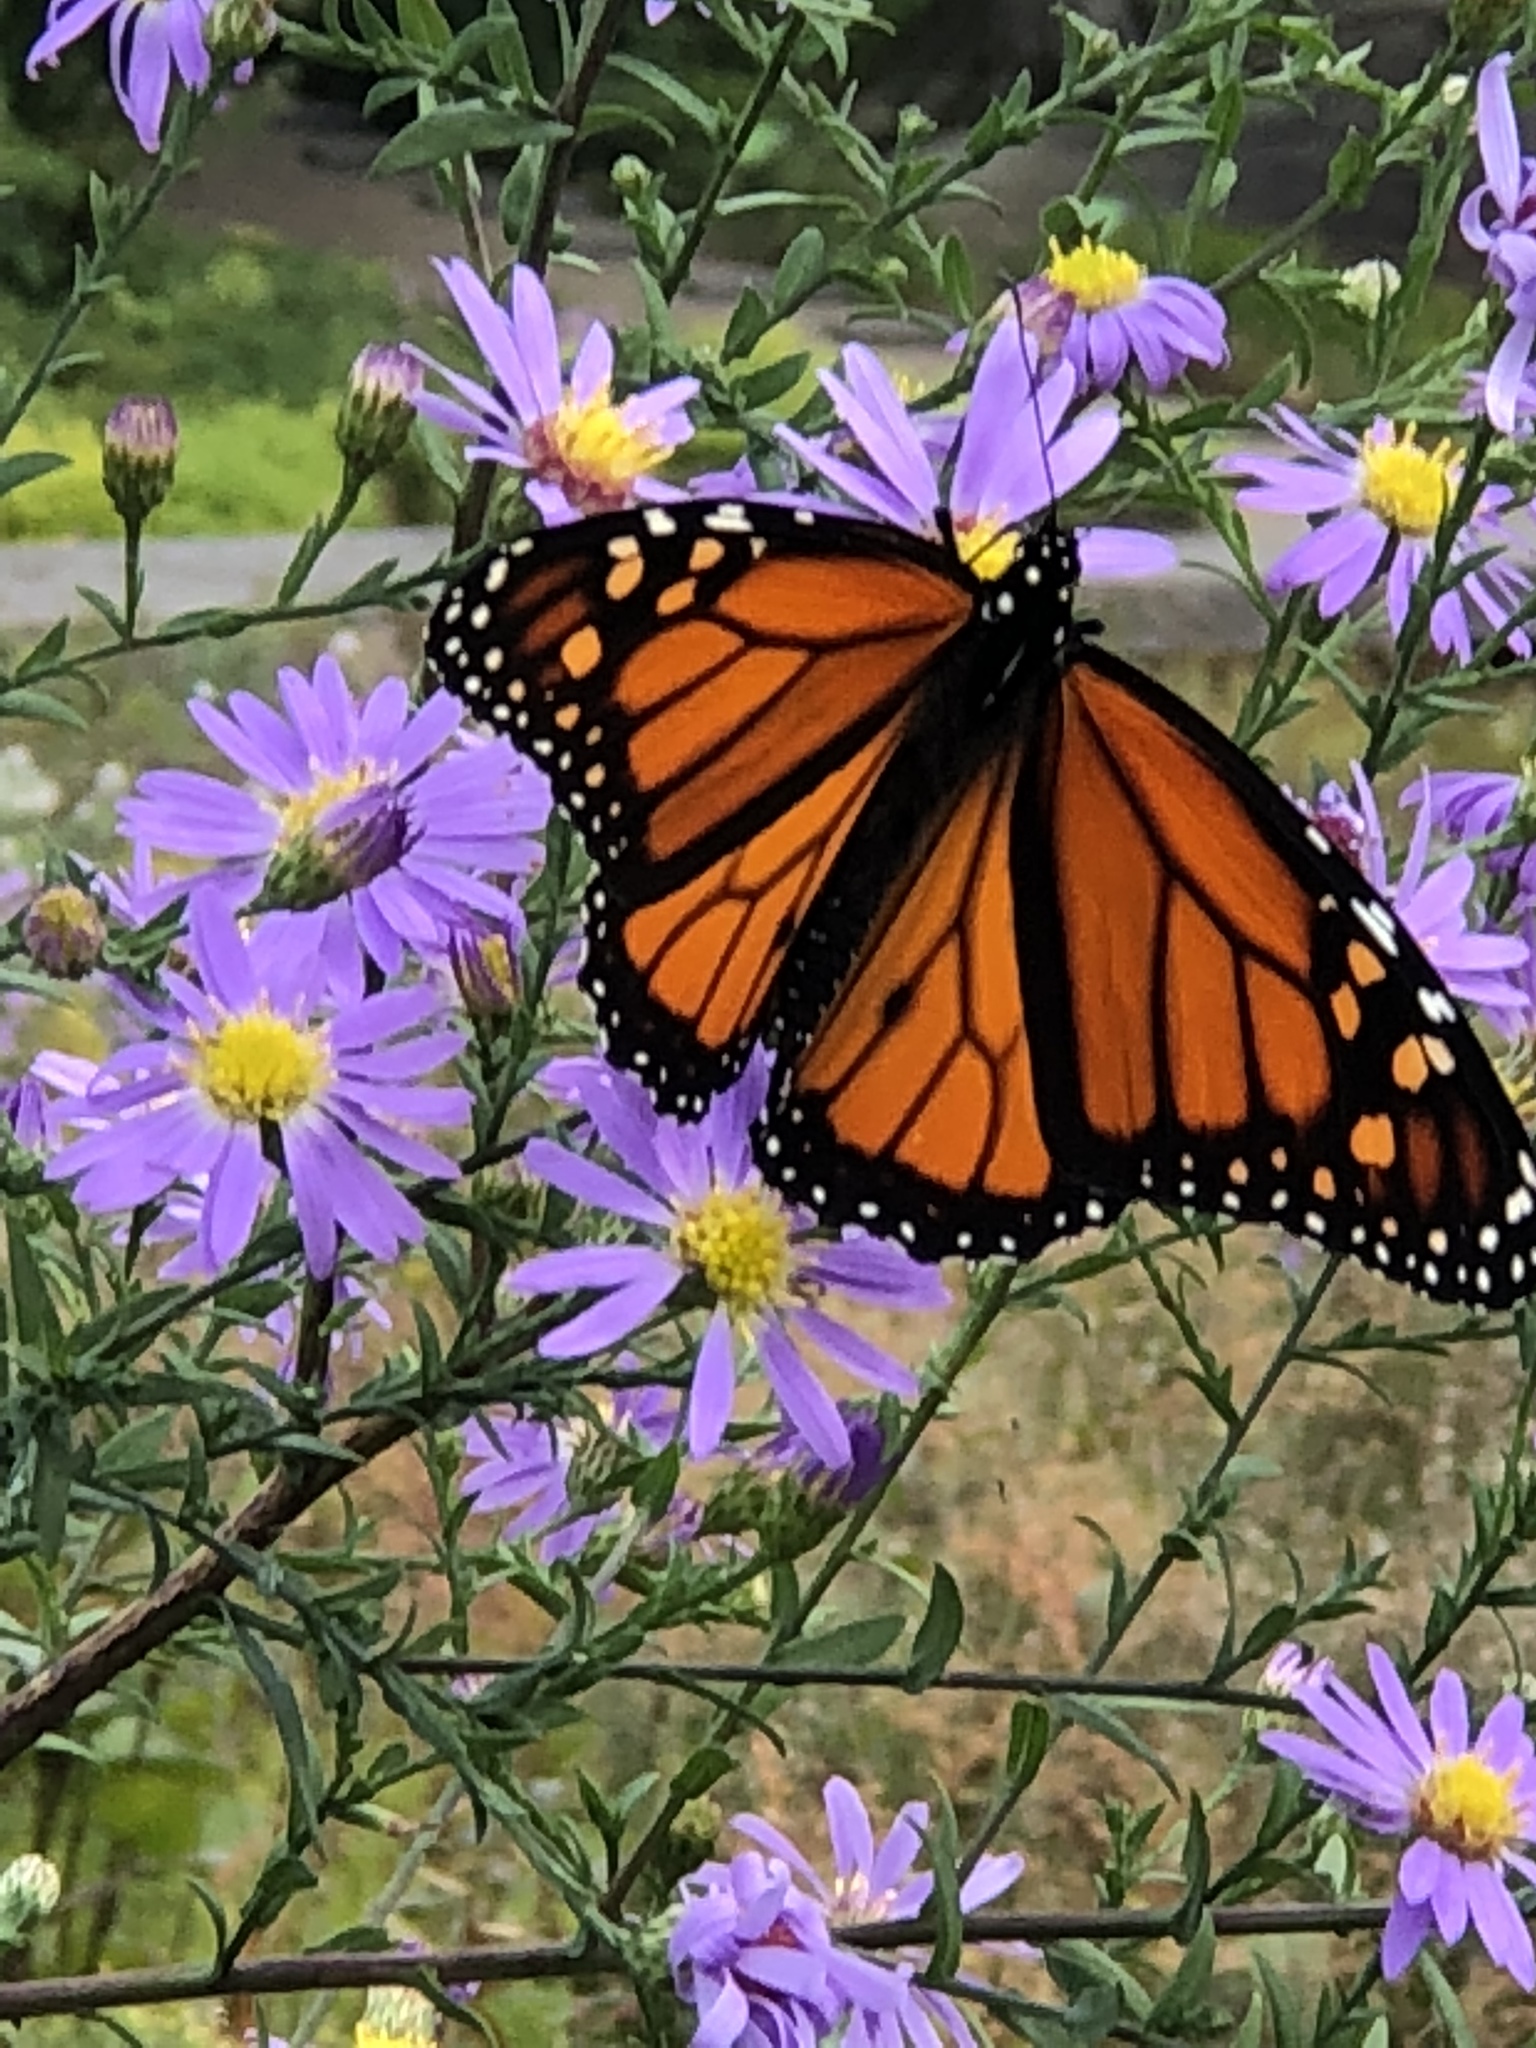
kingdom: Animalia
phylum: Arthropoda
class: Insecta
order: Lepidoptera
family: Nymphalidae
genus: Danaus
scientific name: Danaus plexippus
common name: Monarch
